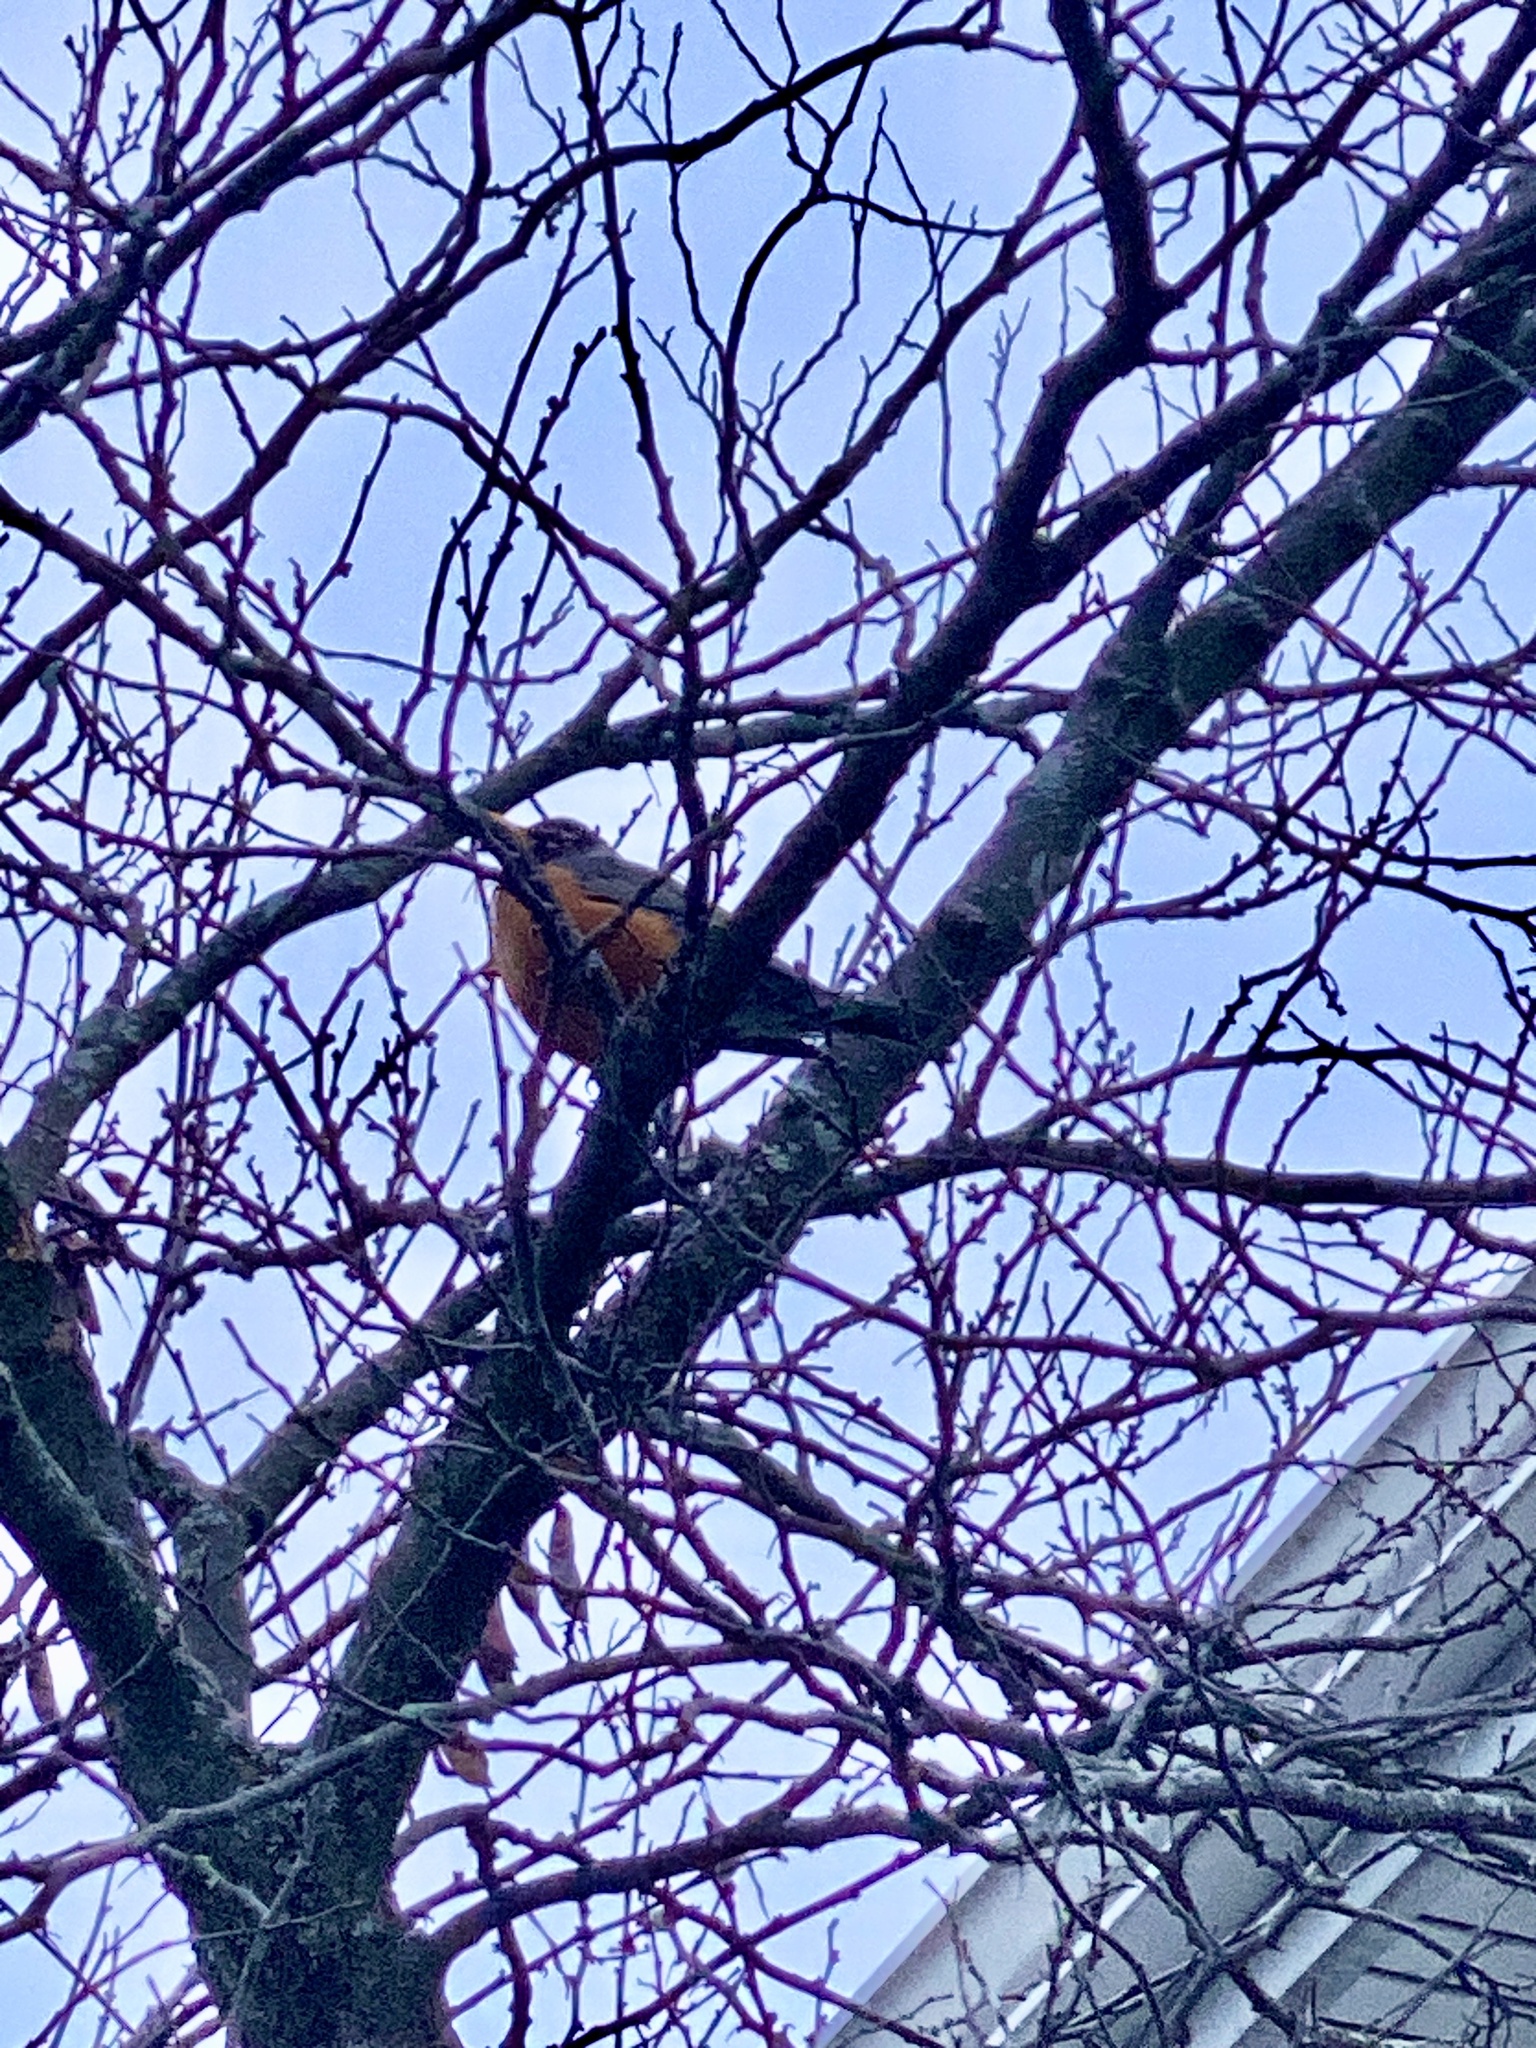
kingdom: Animalia
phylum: Chordata
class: Aves
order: Passeriformes
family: Turdidae
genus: Turdus
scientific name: Turdus migratorius
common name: American robin
